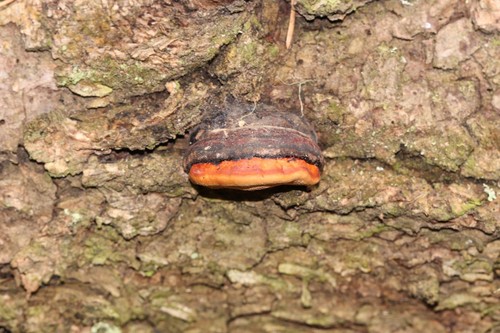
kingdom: Fungi
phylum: Basidiomycota
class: Agaricomycetes
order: Polyporales
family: Fomitopsidaceae
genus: Fomitopsis
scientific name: Fomitopsis pinicola
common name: Red-belted bracket
